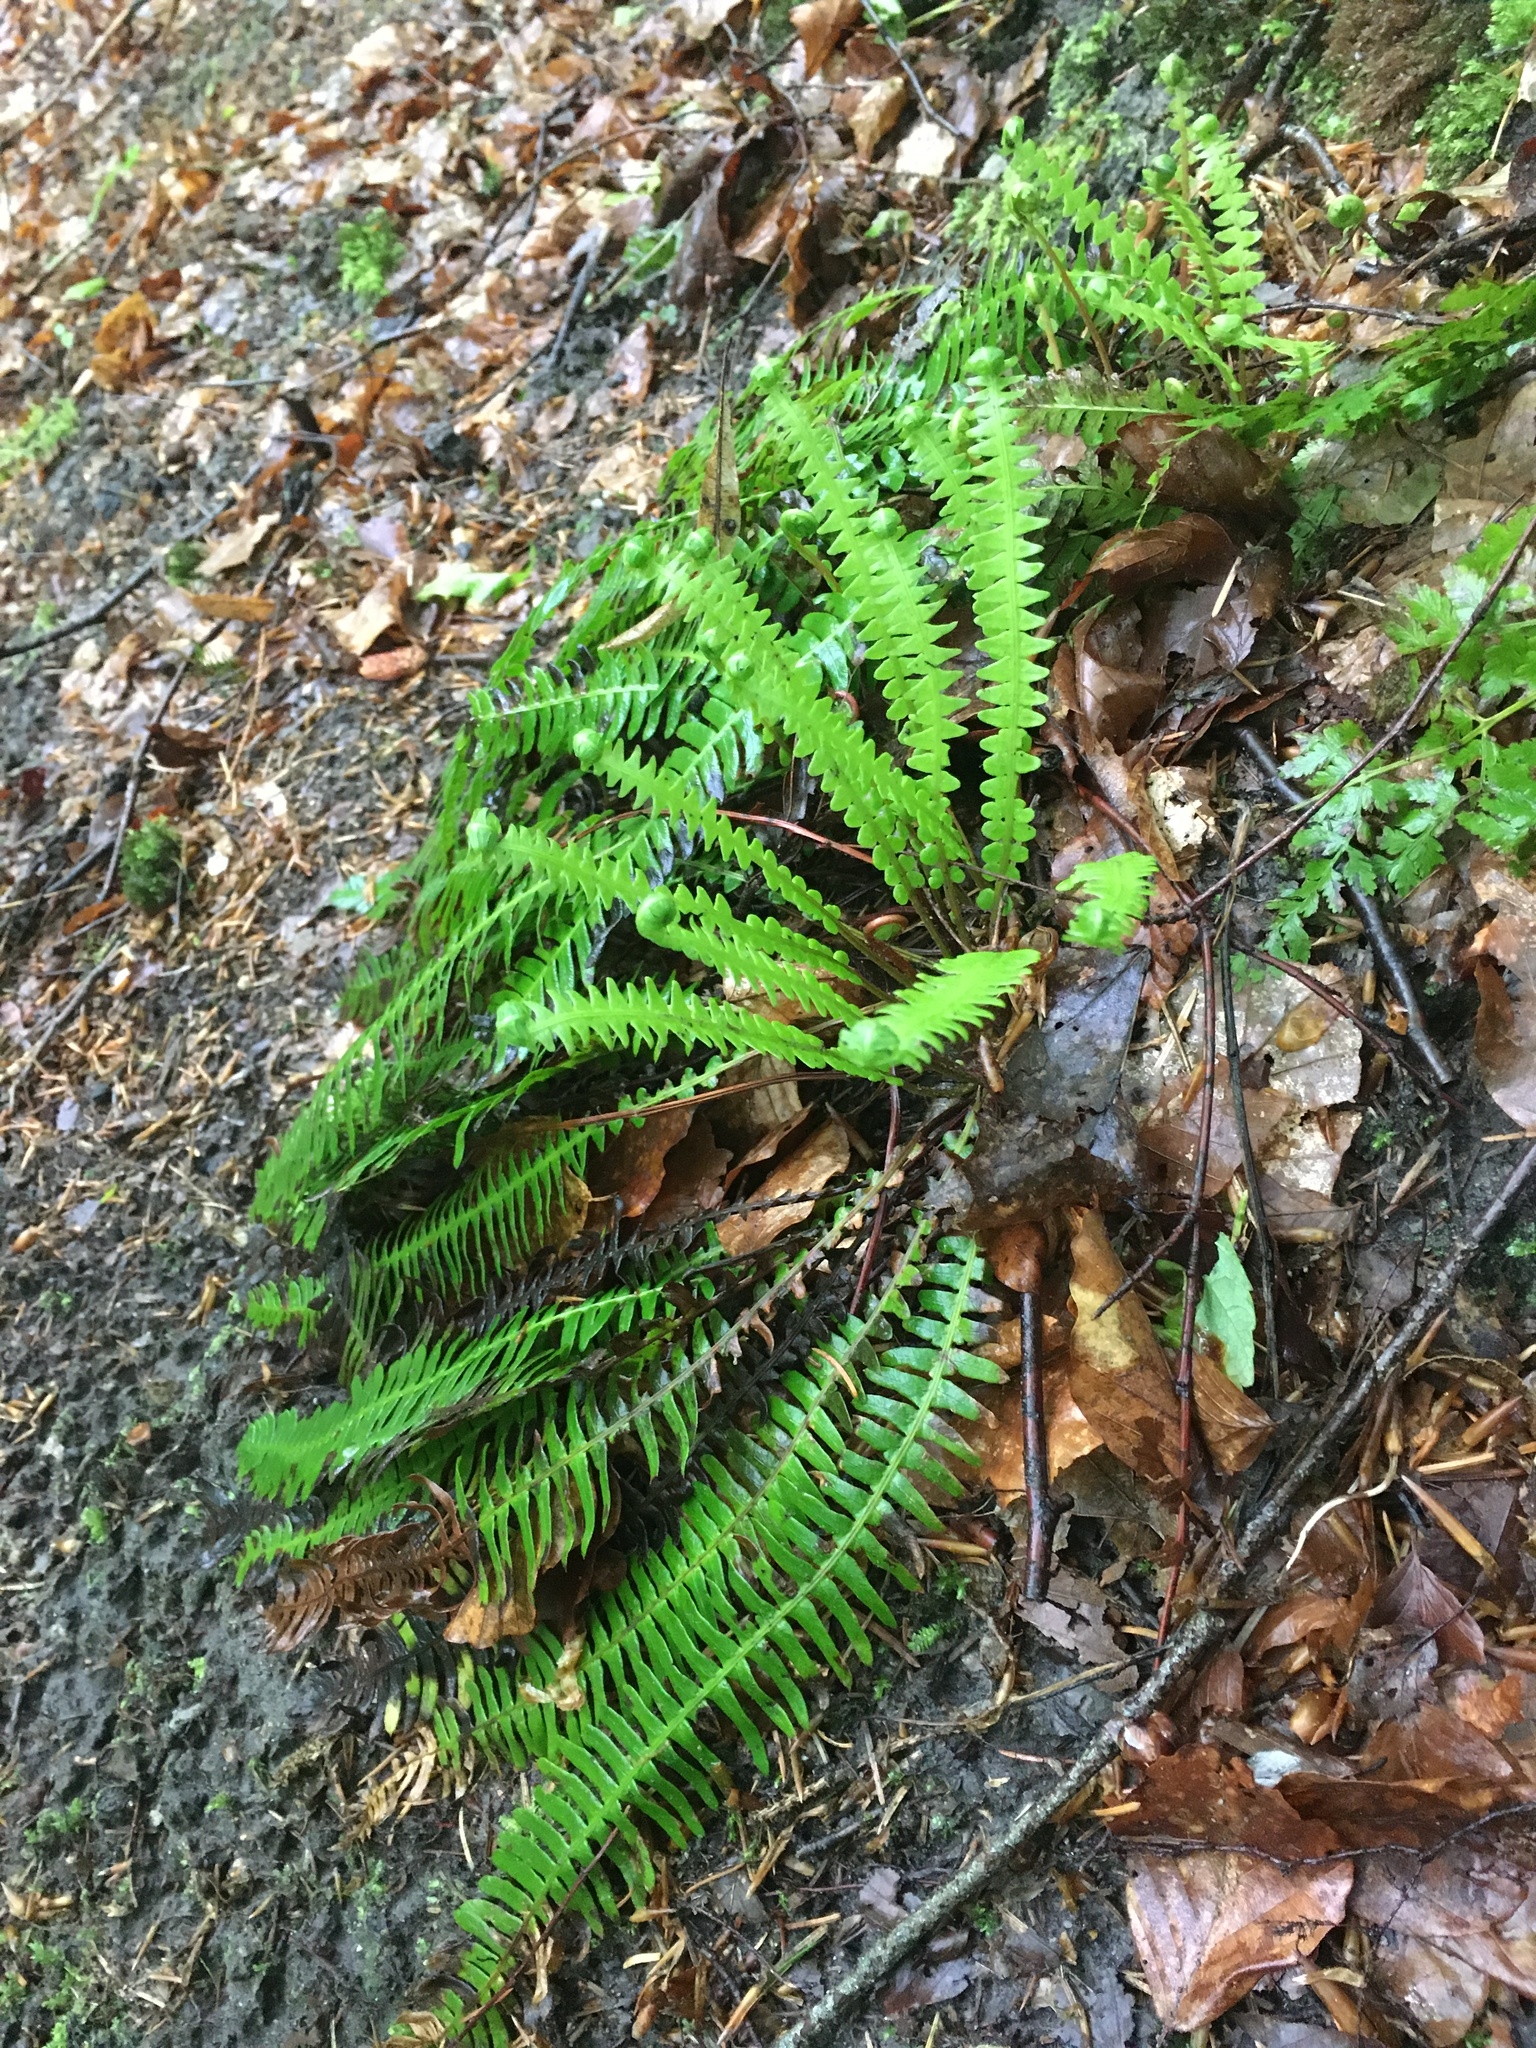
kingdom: Plantae
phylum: Tracheophyta
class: Polypodiopsida
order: Polypodiales
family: Blechnaceae
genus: Struthiopteris
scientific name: Struthiopteris spicant
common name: Deer fern
